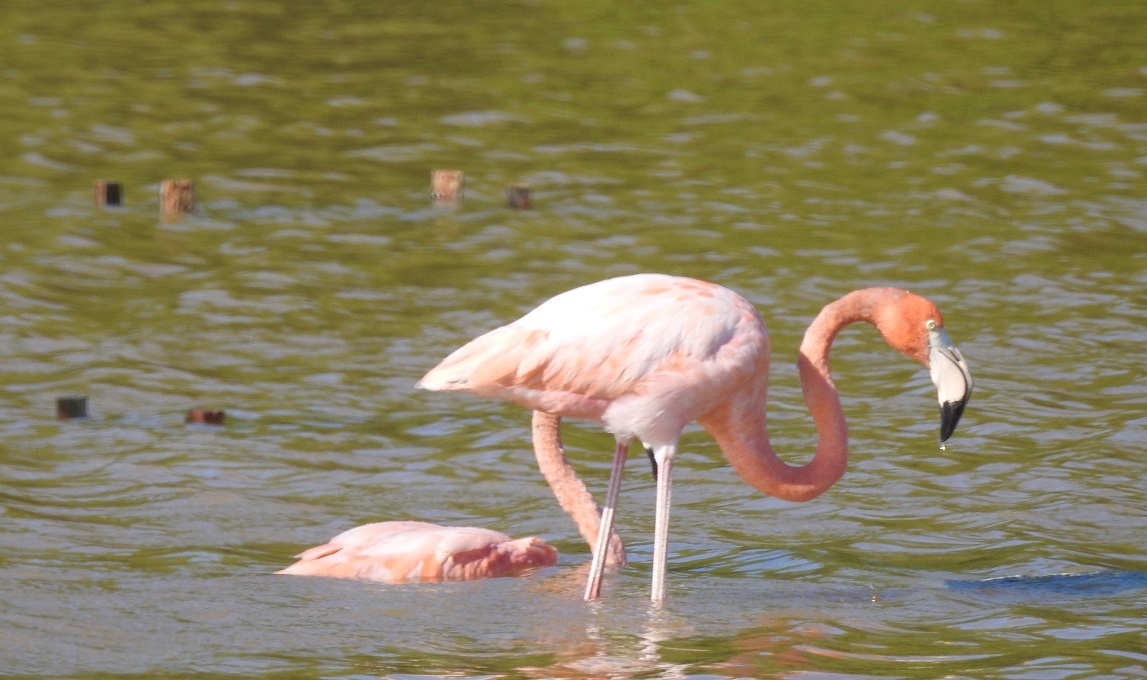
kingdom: Animalia
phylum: Chordata
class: Aves
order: Phoenicopteriformes
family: Phoenicopteridae
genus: Phoenicopterus
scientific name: Phoenicopterus ruber
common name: American flamingo
